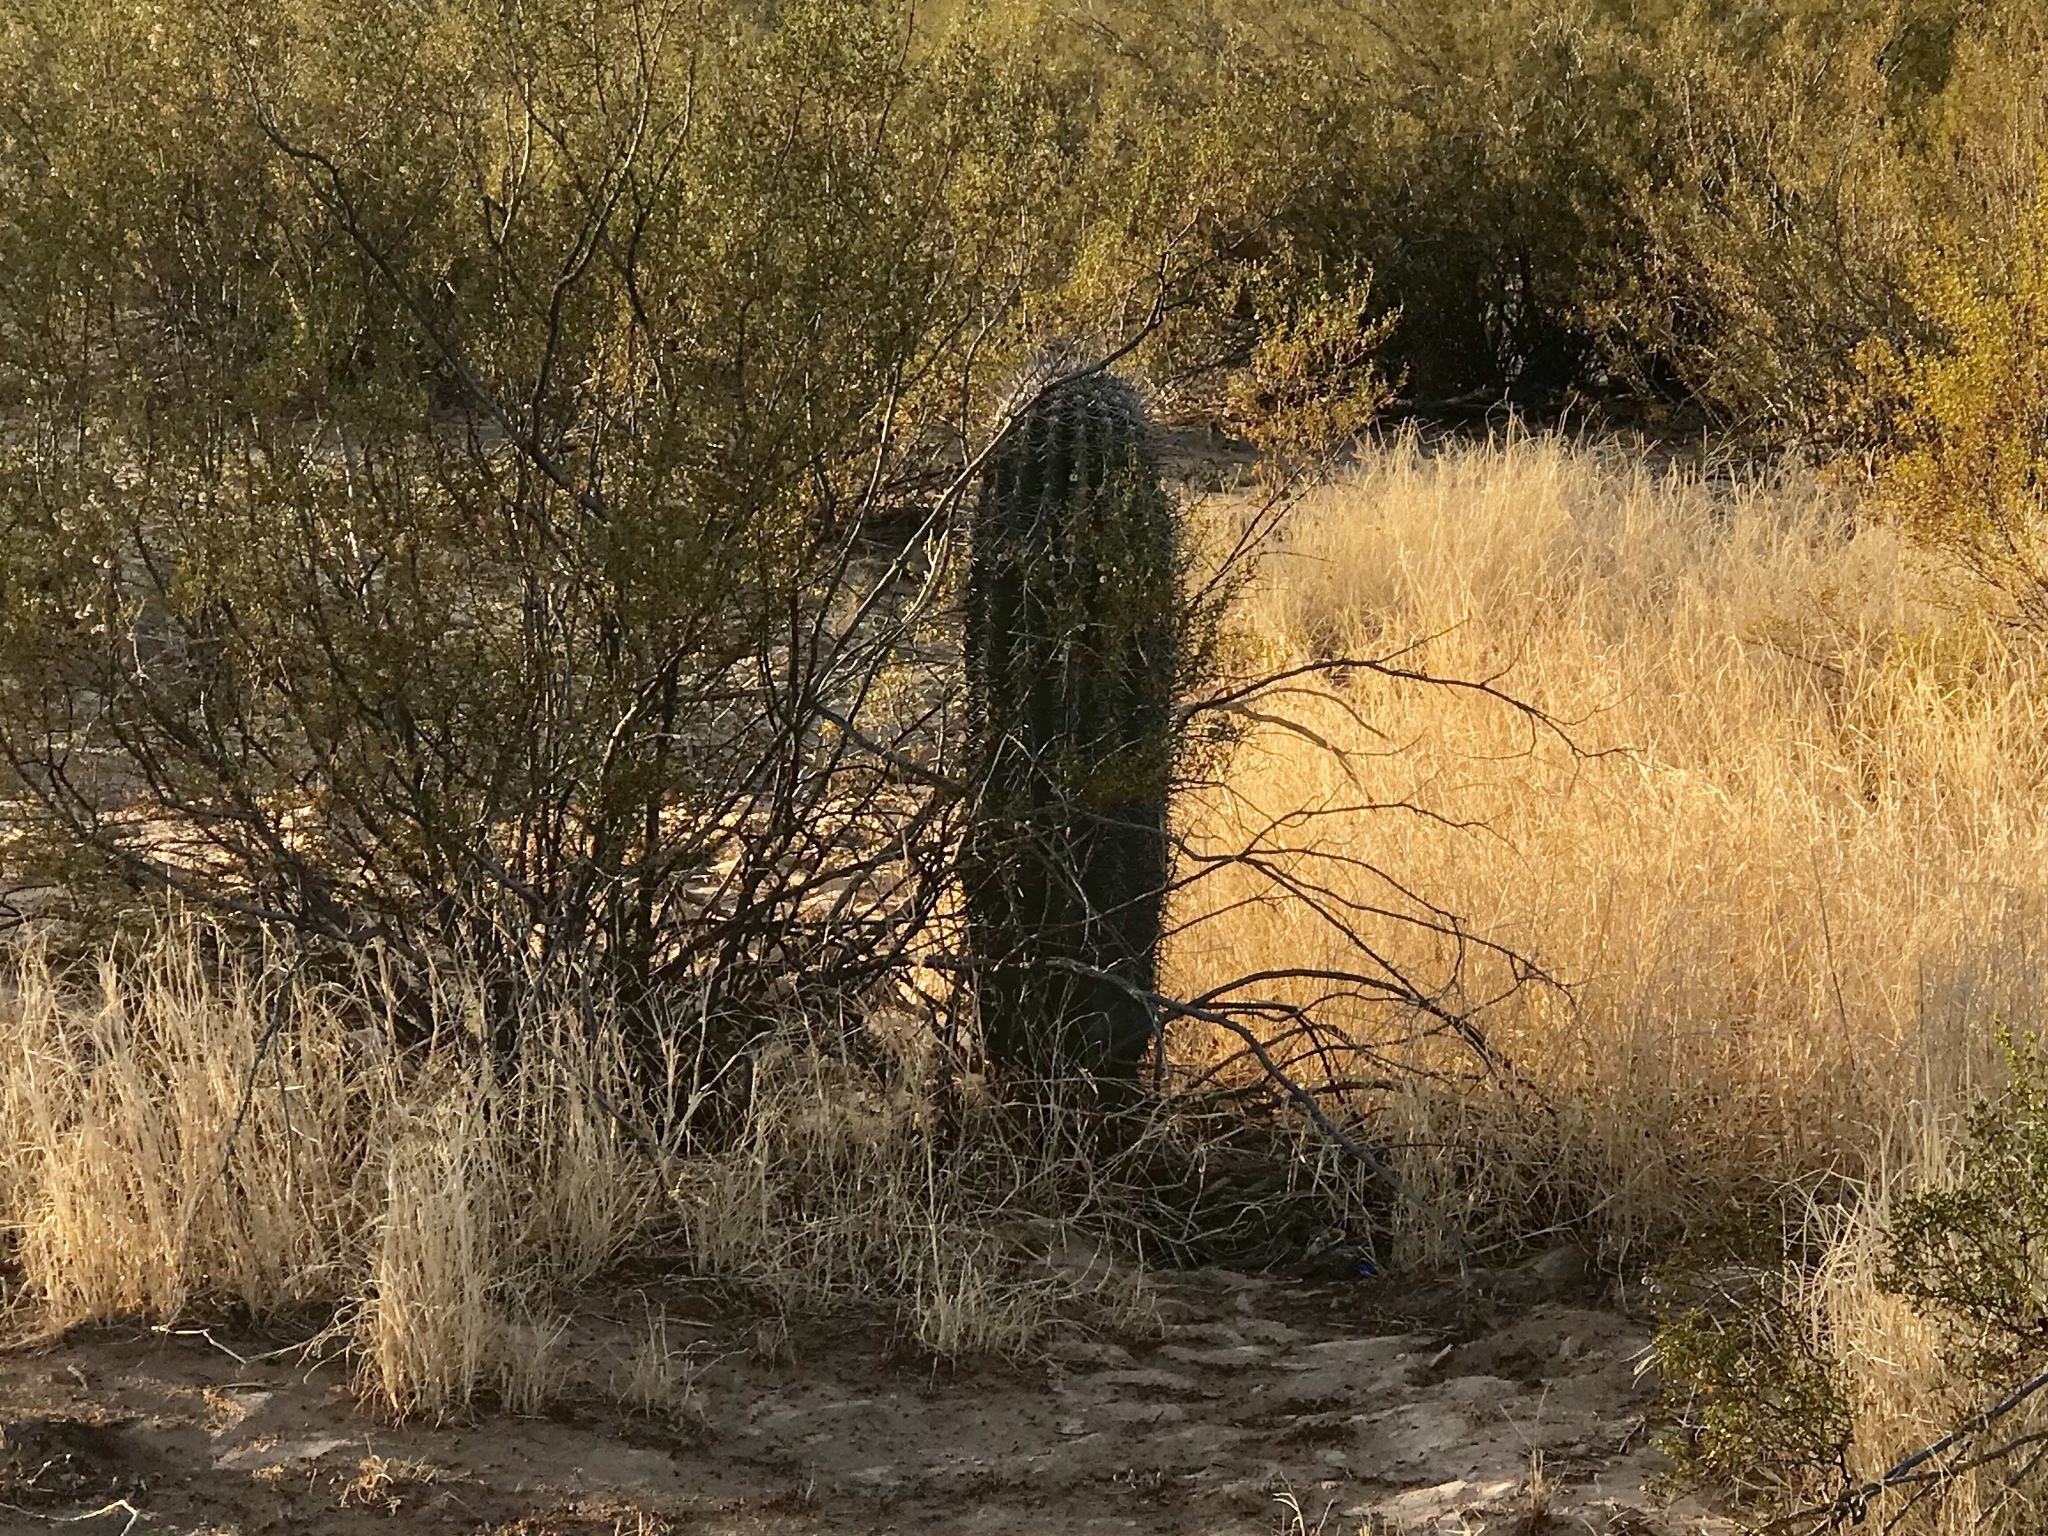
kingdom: Plantae
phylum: Tracheophyta
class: Magnoliopsida
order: Caryophyllales
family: Cactaceae
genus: Carnegiea
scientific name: Carnegiea gigantea
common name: Saguaro
